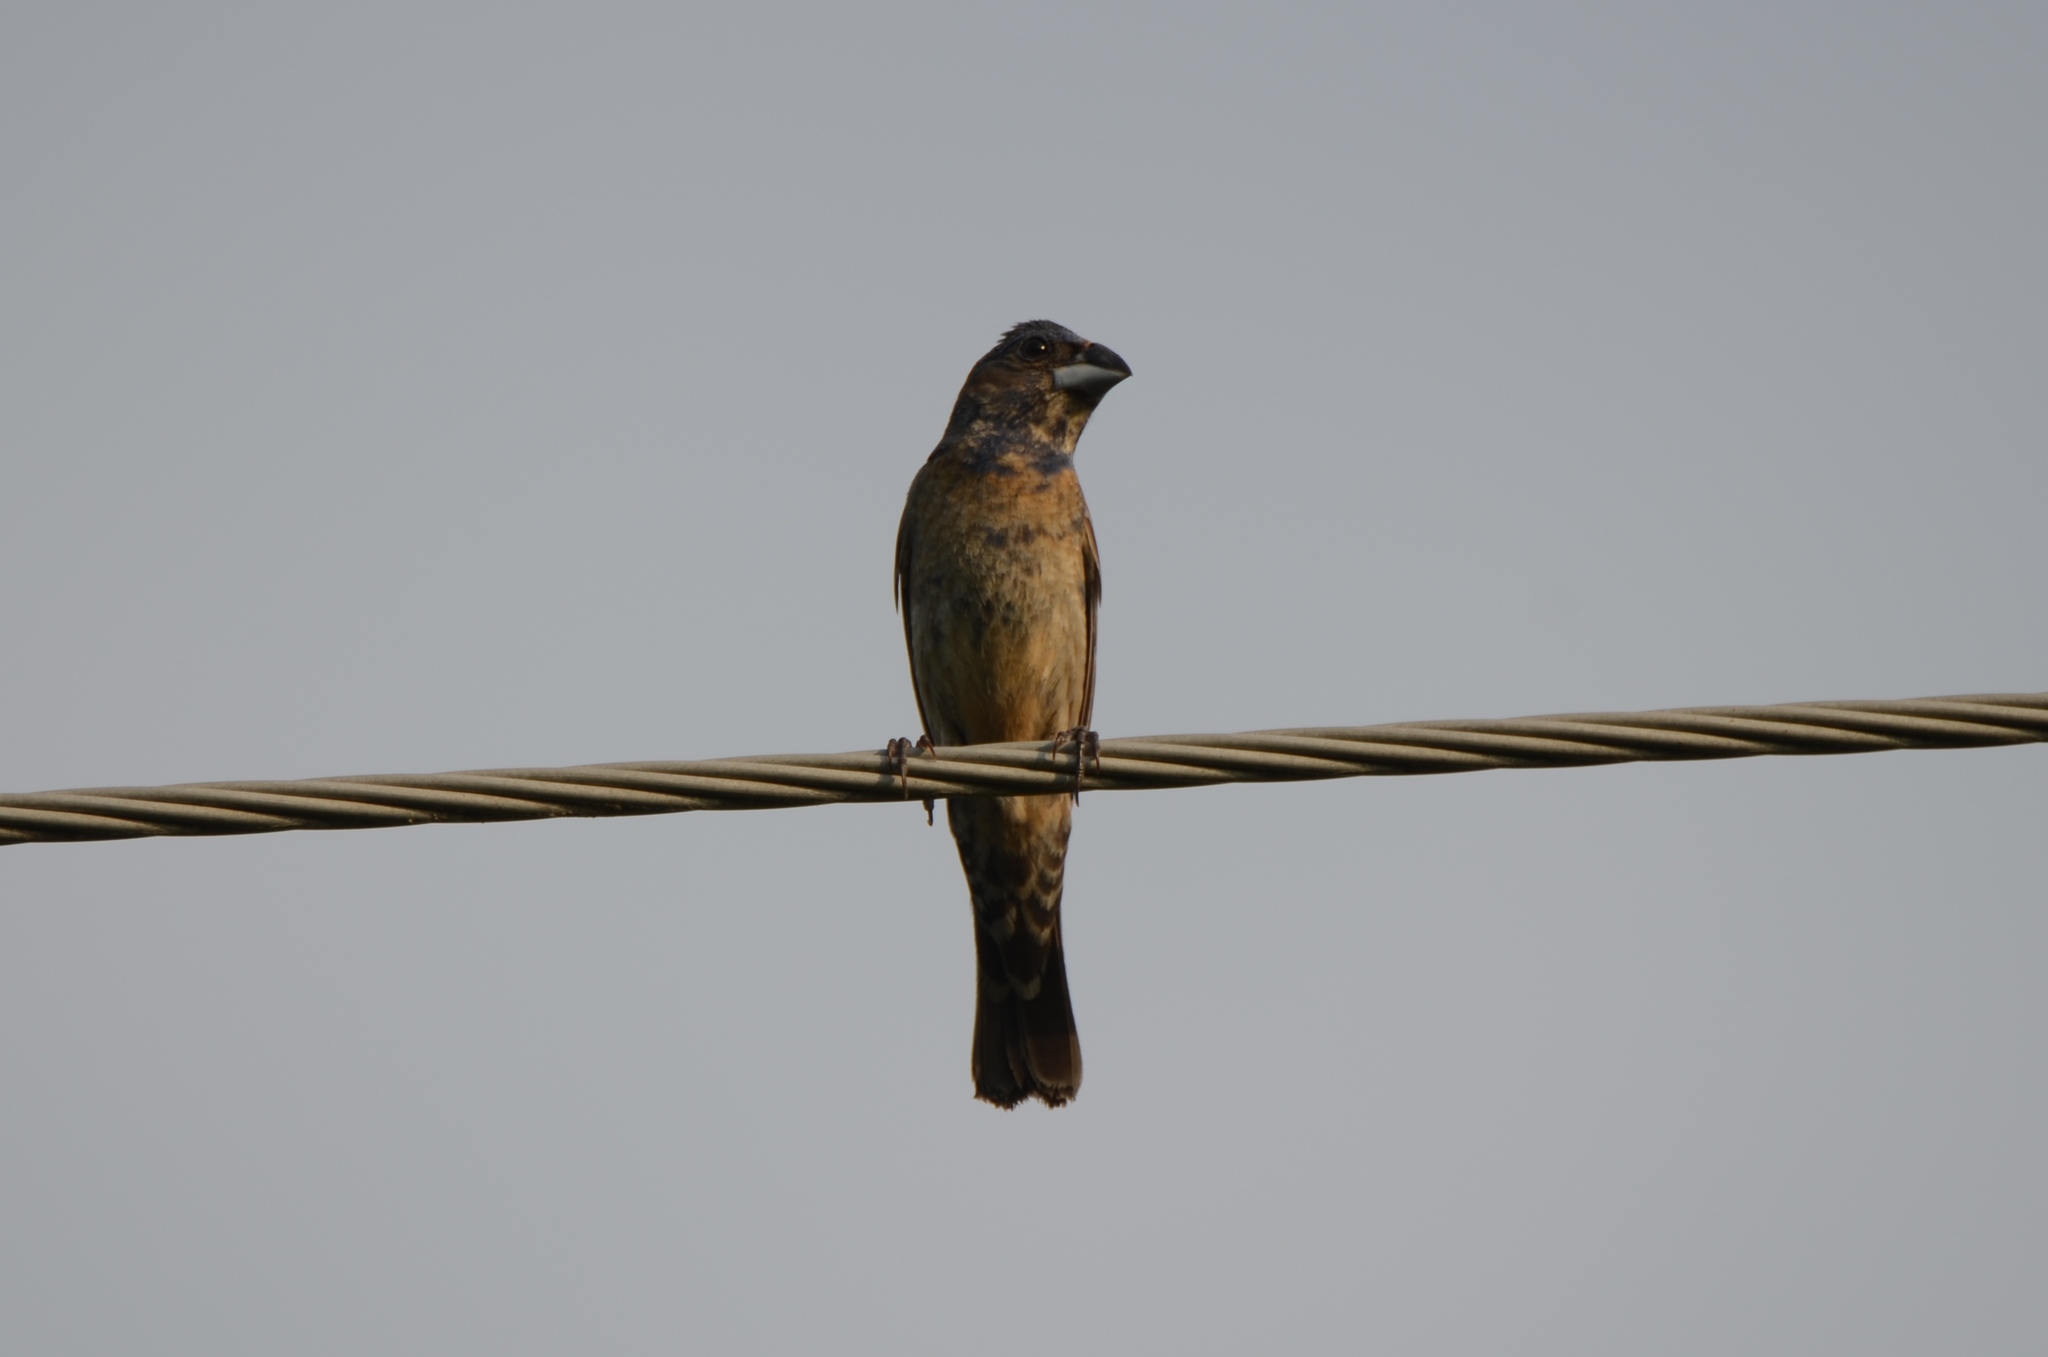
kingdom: Animalia
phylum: Chordata
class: Aves
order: Passeriformes
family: Cardinalidae
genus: Passerina
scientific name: Passerina caerulea
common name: Blue grosbeak
